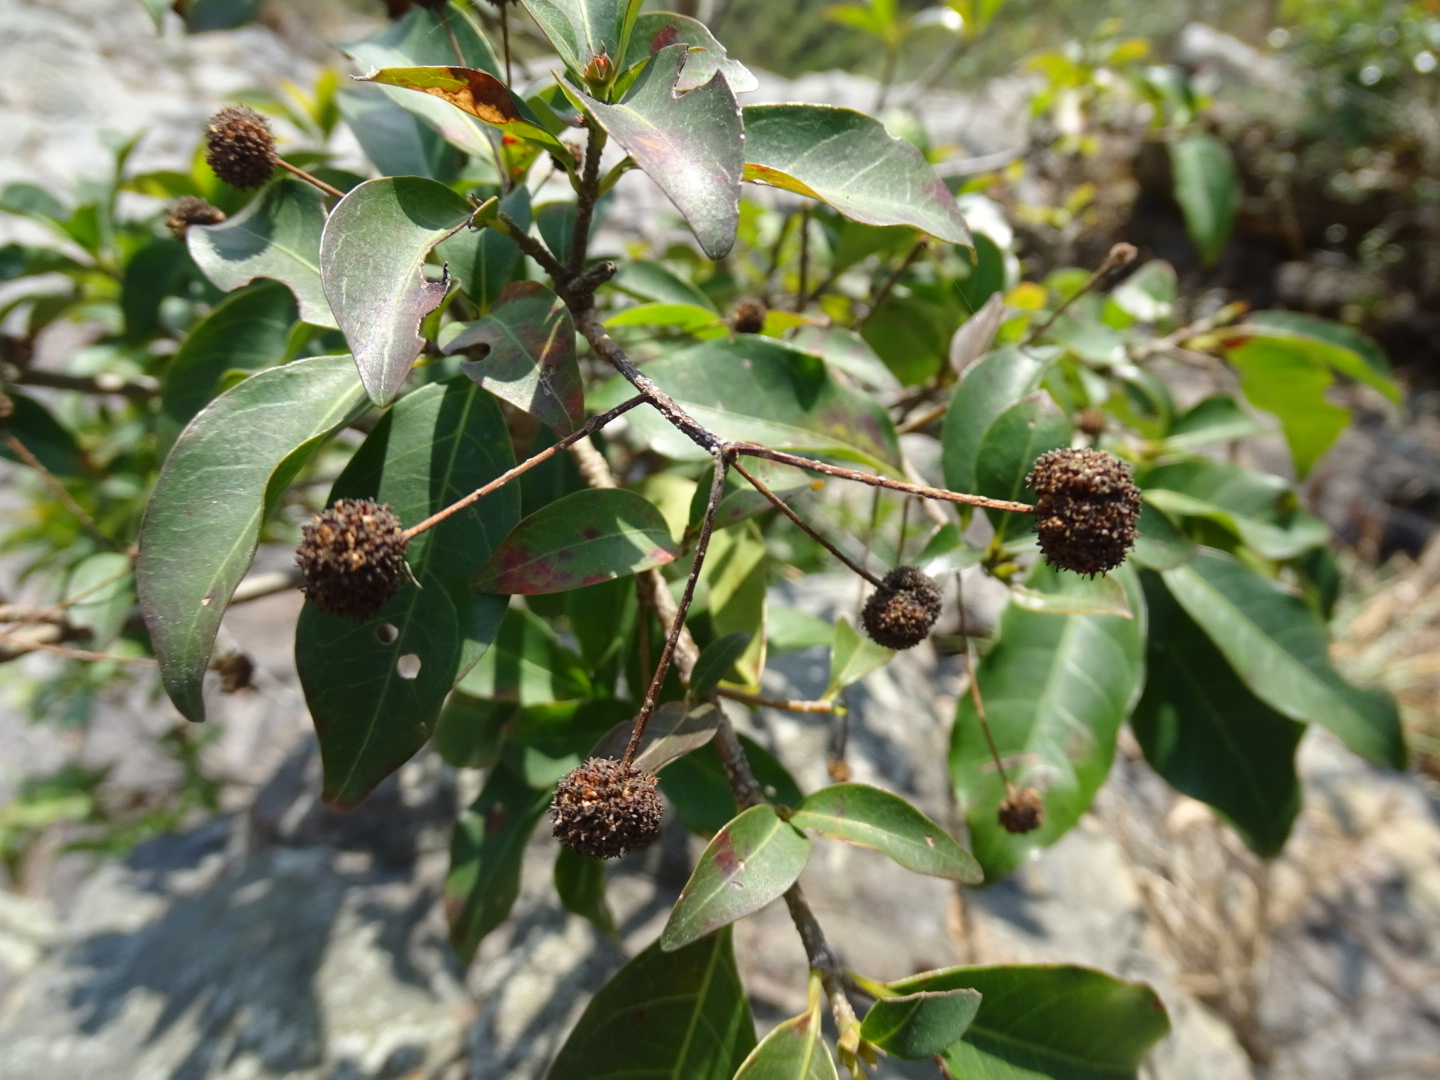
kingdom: Plantae
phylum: Tracheophyta
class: Magnoliopsida
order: Gentianales
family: Rubiaceae
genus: Adina
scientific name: Adina pilulifera
